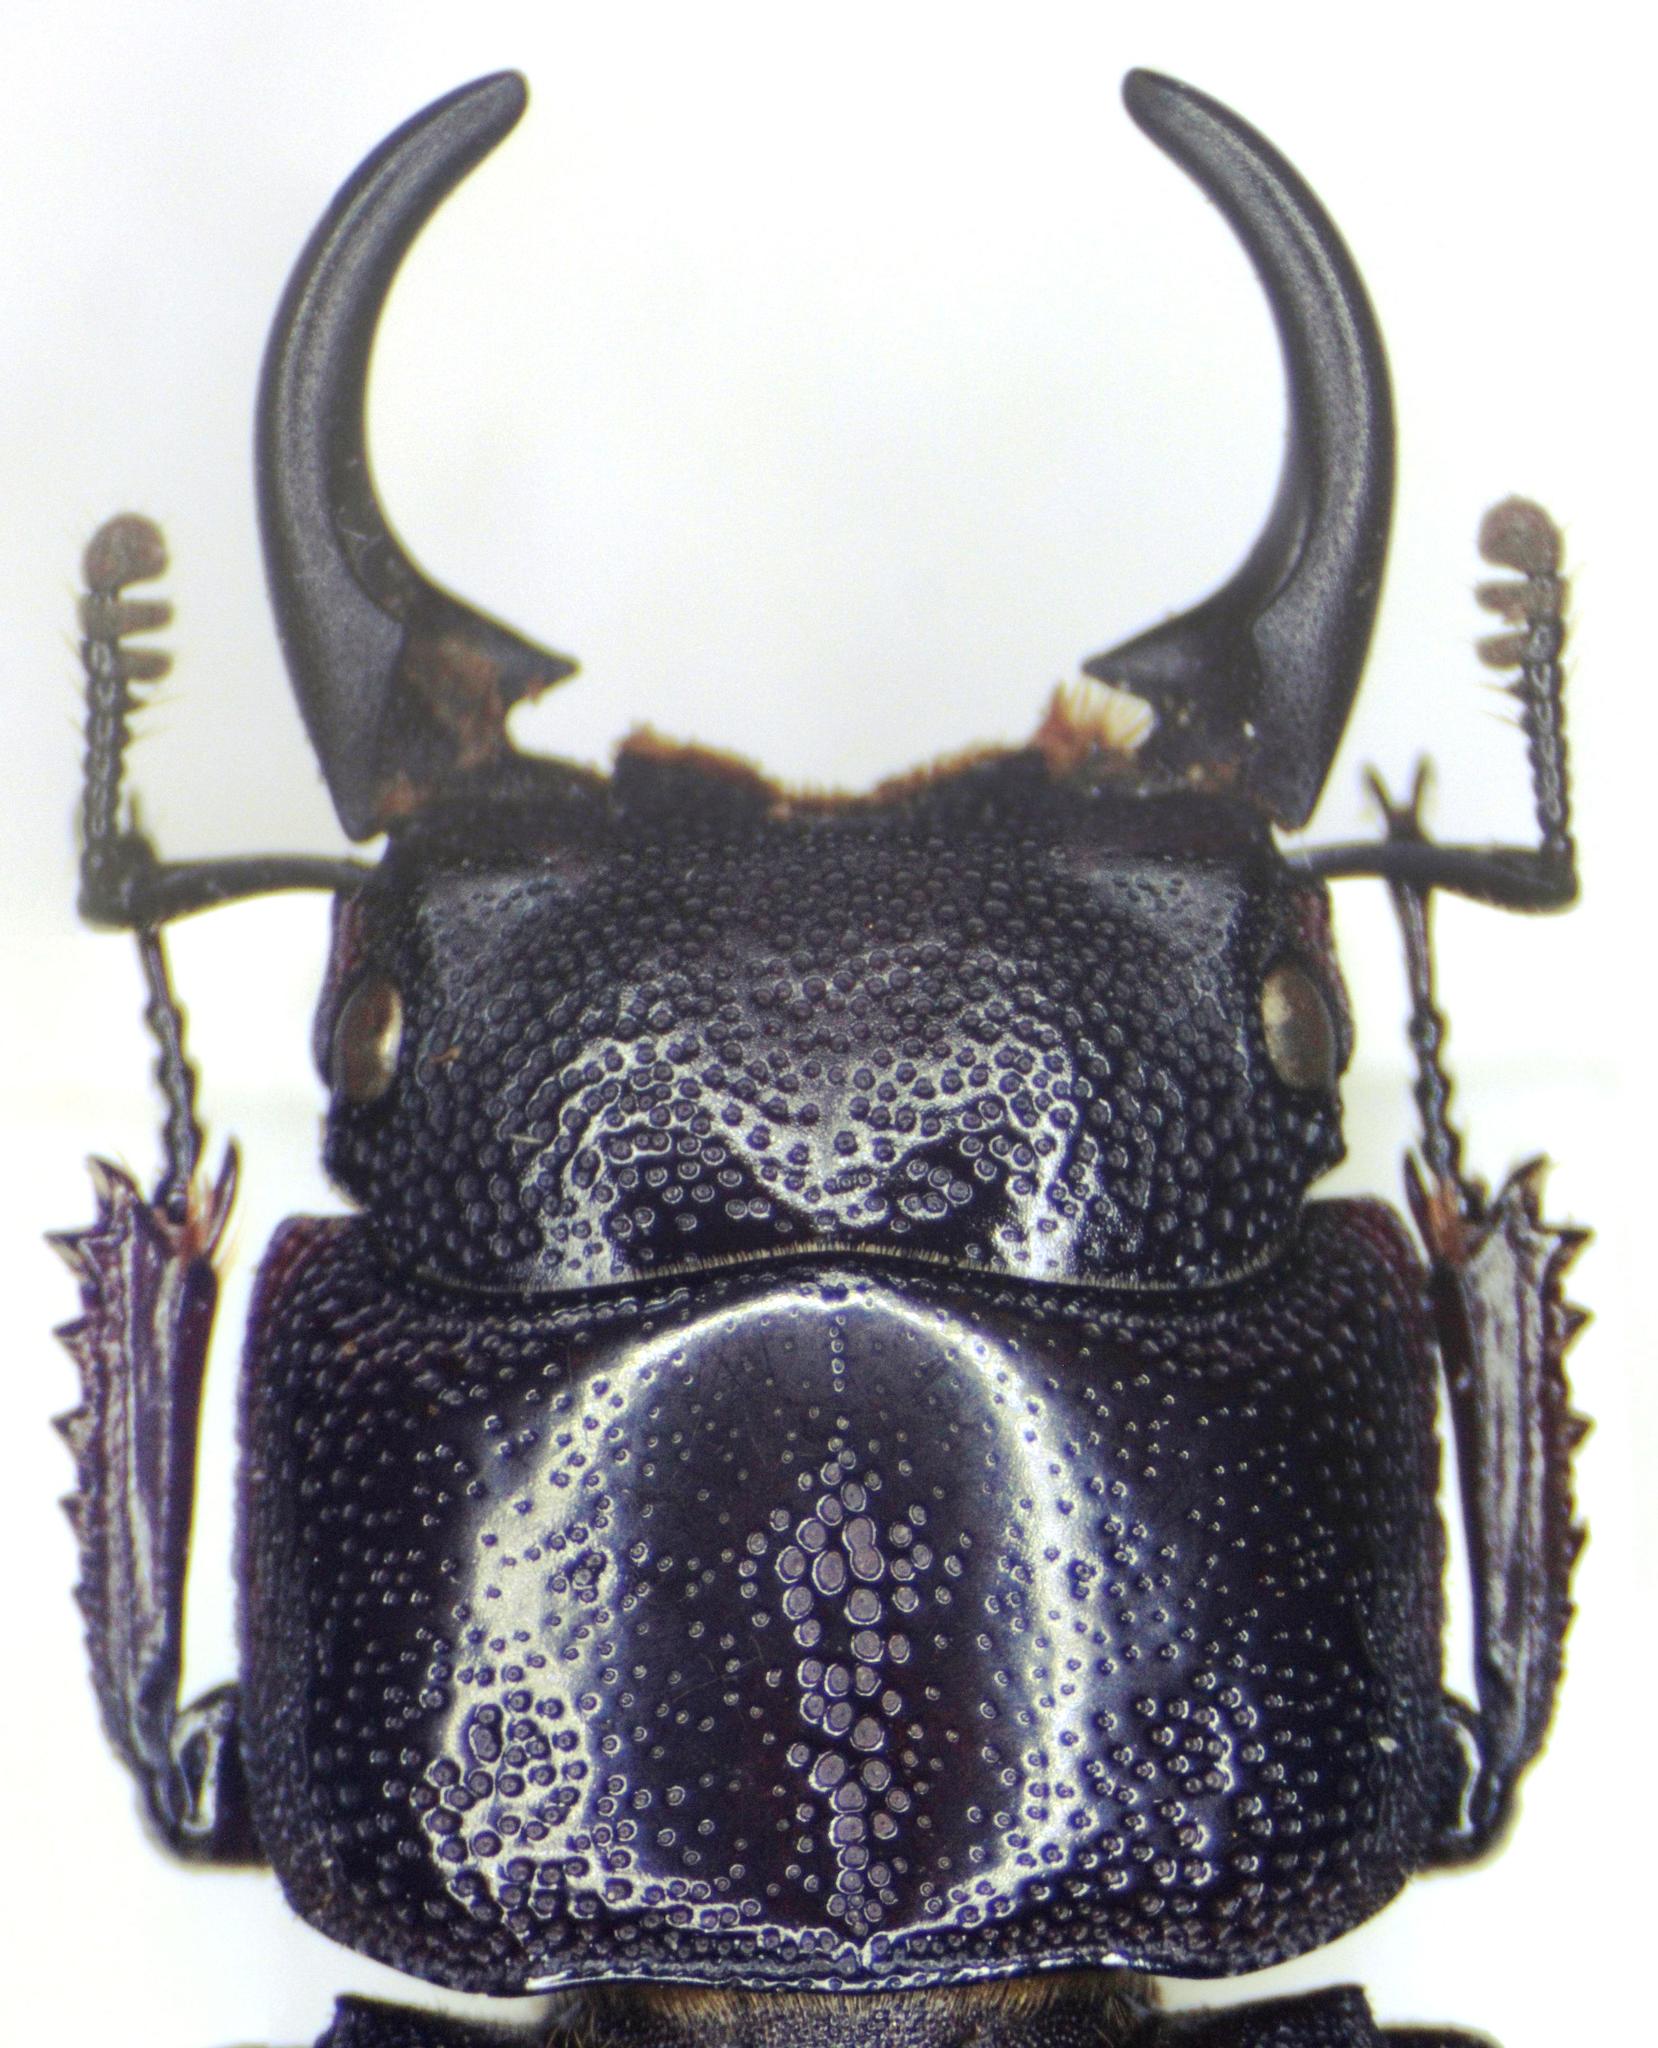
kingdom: Animalia
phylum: Arthropoda
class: Insecta
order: Coleoptera
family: Lucanidae
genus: Aegus
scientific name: Aegus subnitidus
